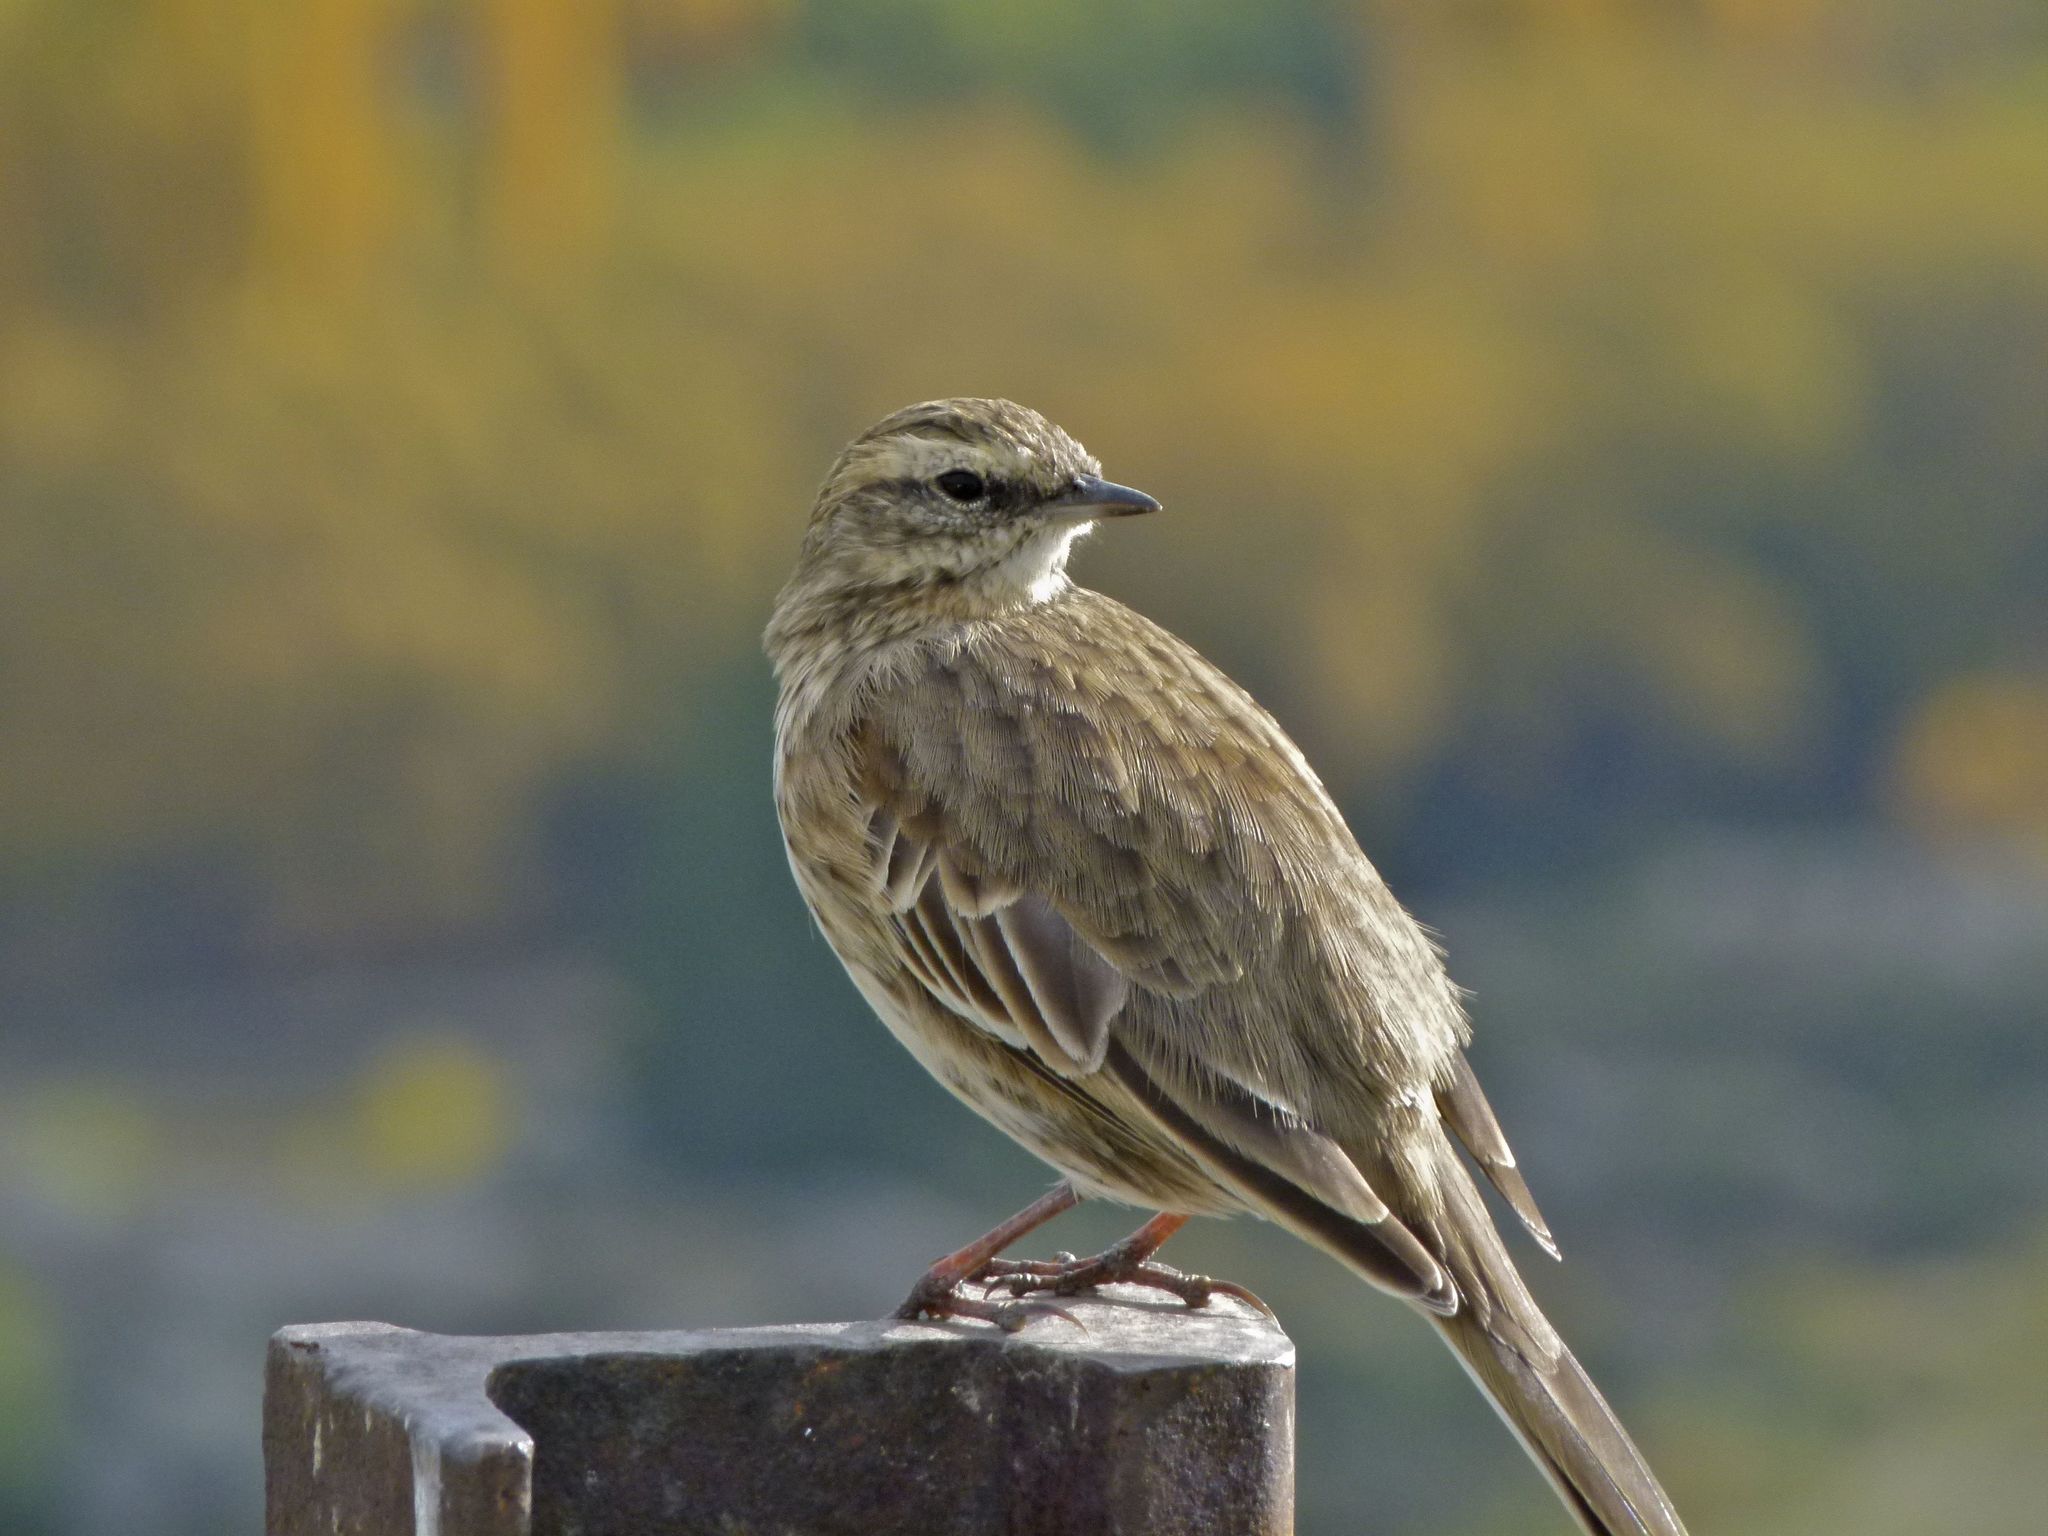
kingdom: Animalia
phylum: Chordata
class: Aves
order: Passeriformes
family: Motacillidae
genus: Anthus
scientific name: Anthus novaeseelandiae
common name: New zealand pipit
